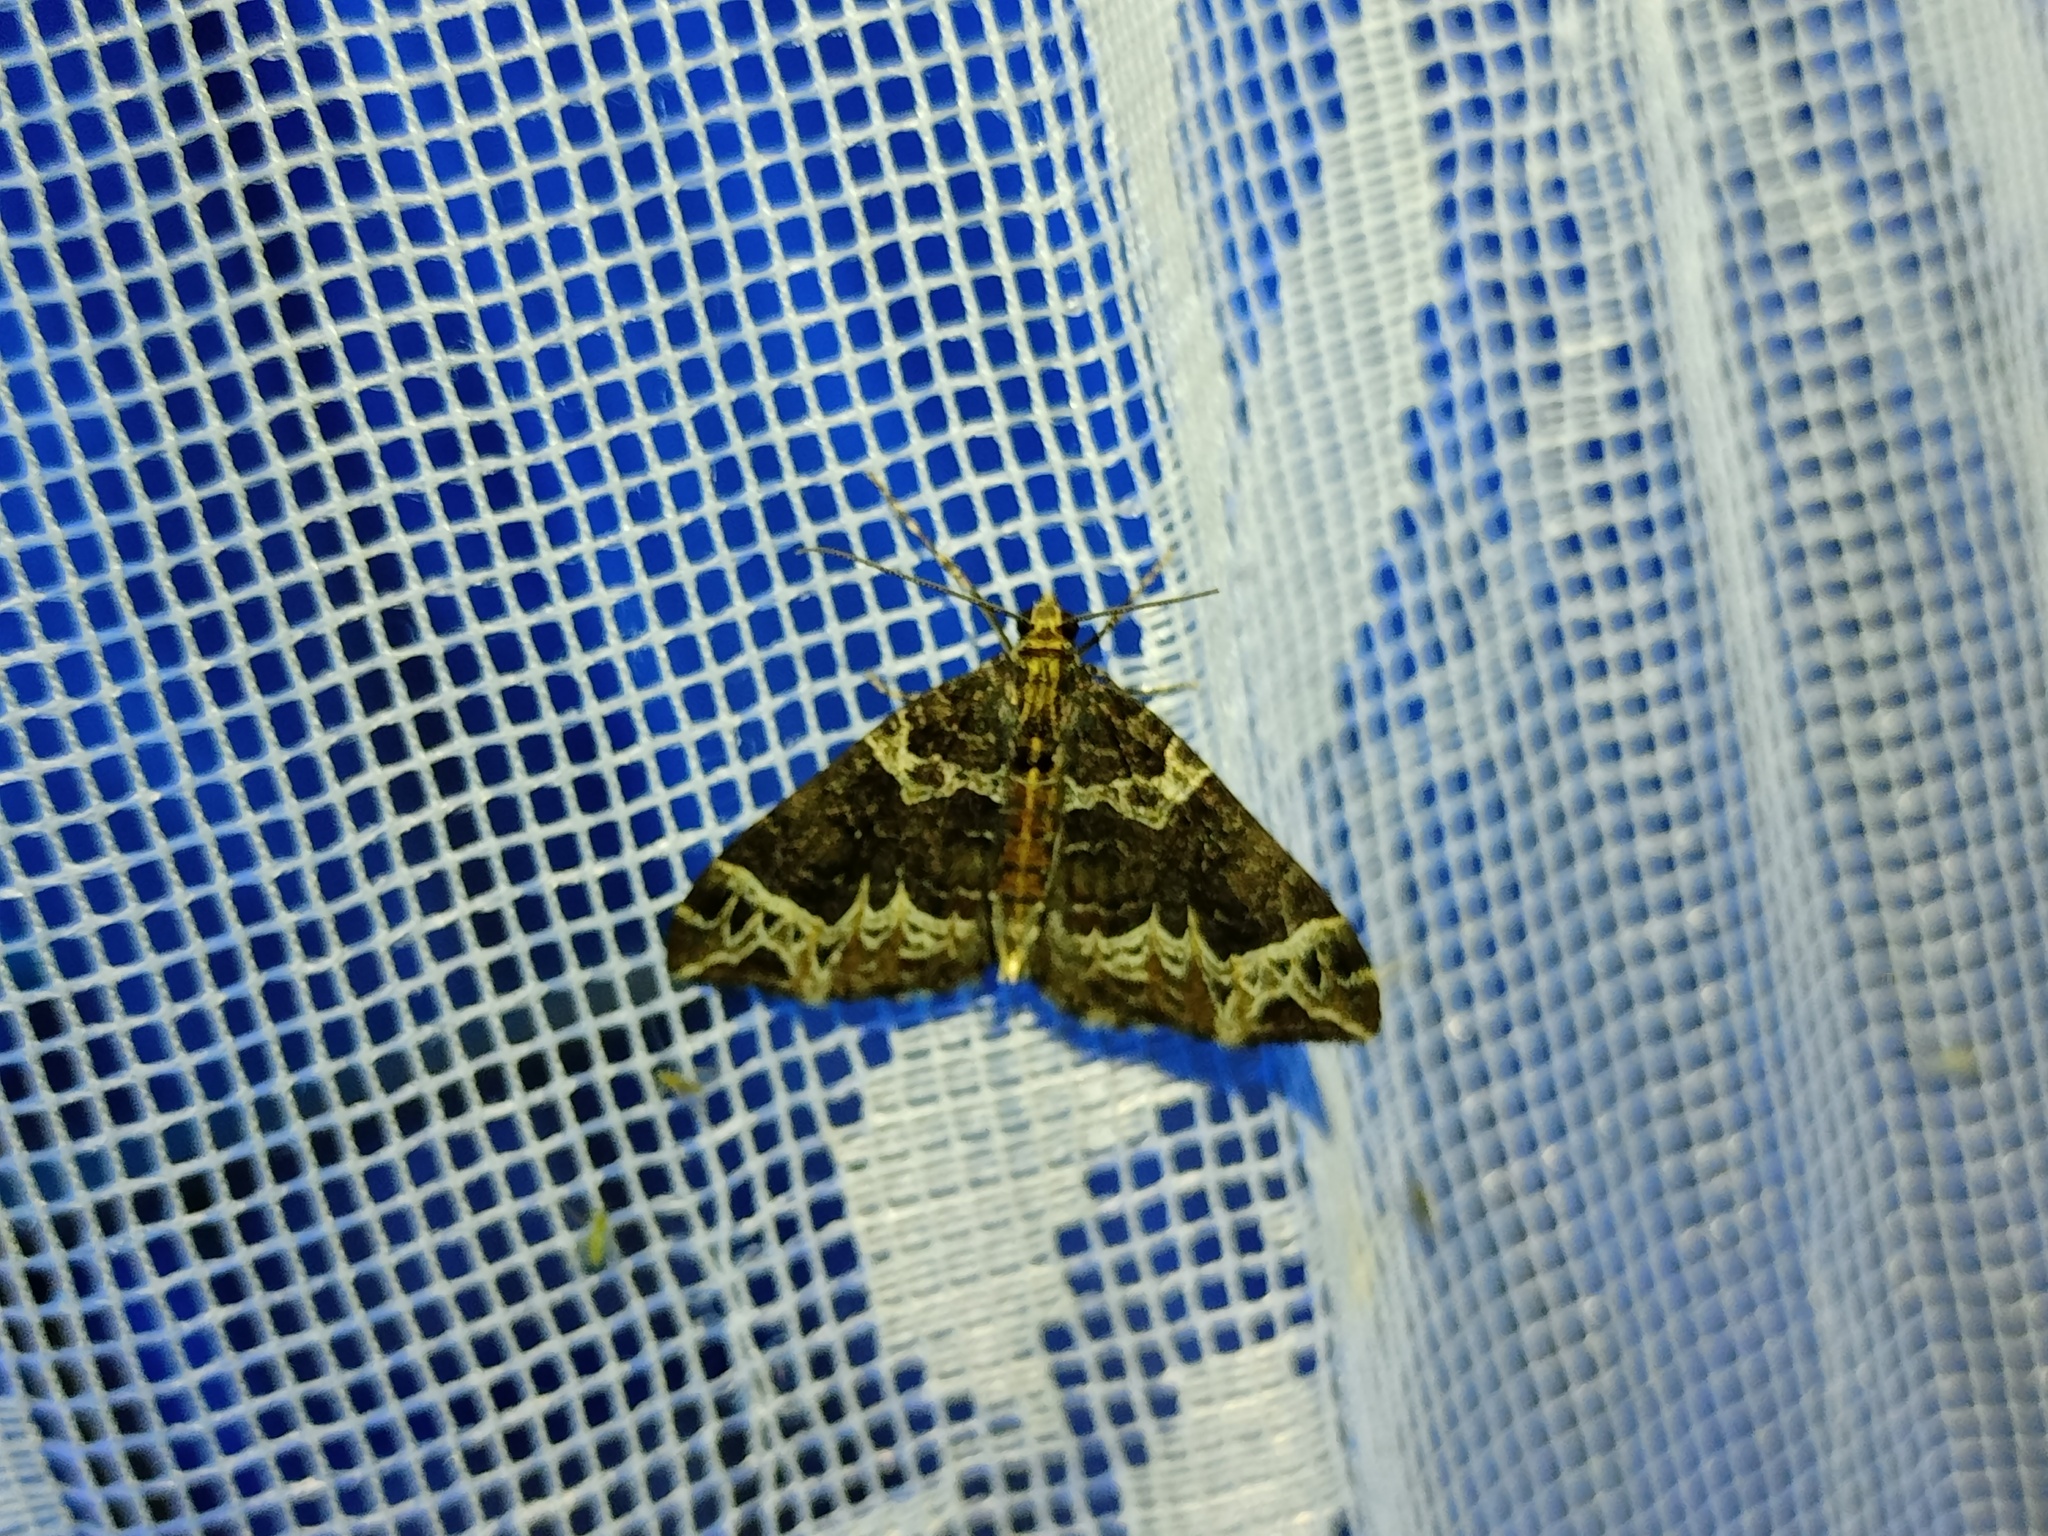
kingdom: Animalia
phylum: Arthropoda
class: Insecta
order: Lepidoptera
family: Geometridae
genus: Ecliptopera
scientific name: Ecliptopera silaceata
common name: Small phoenix
